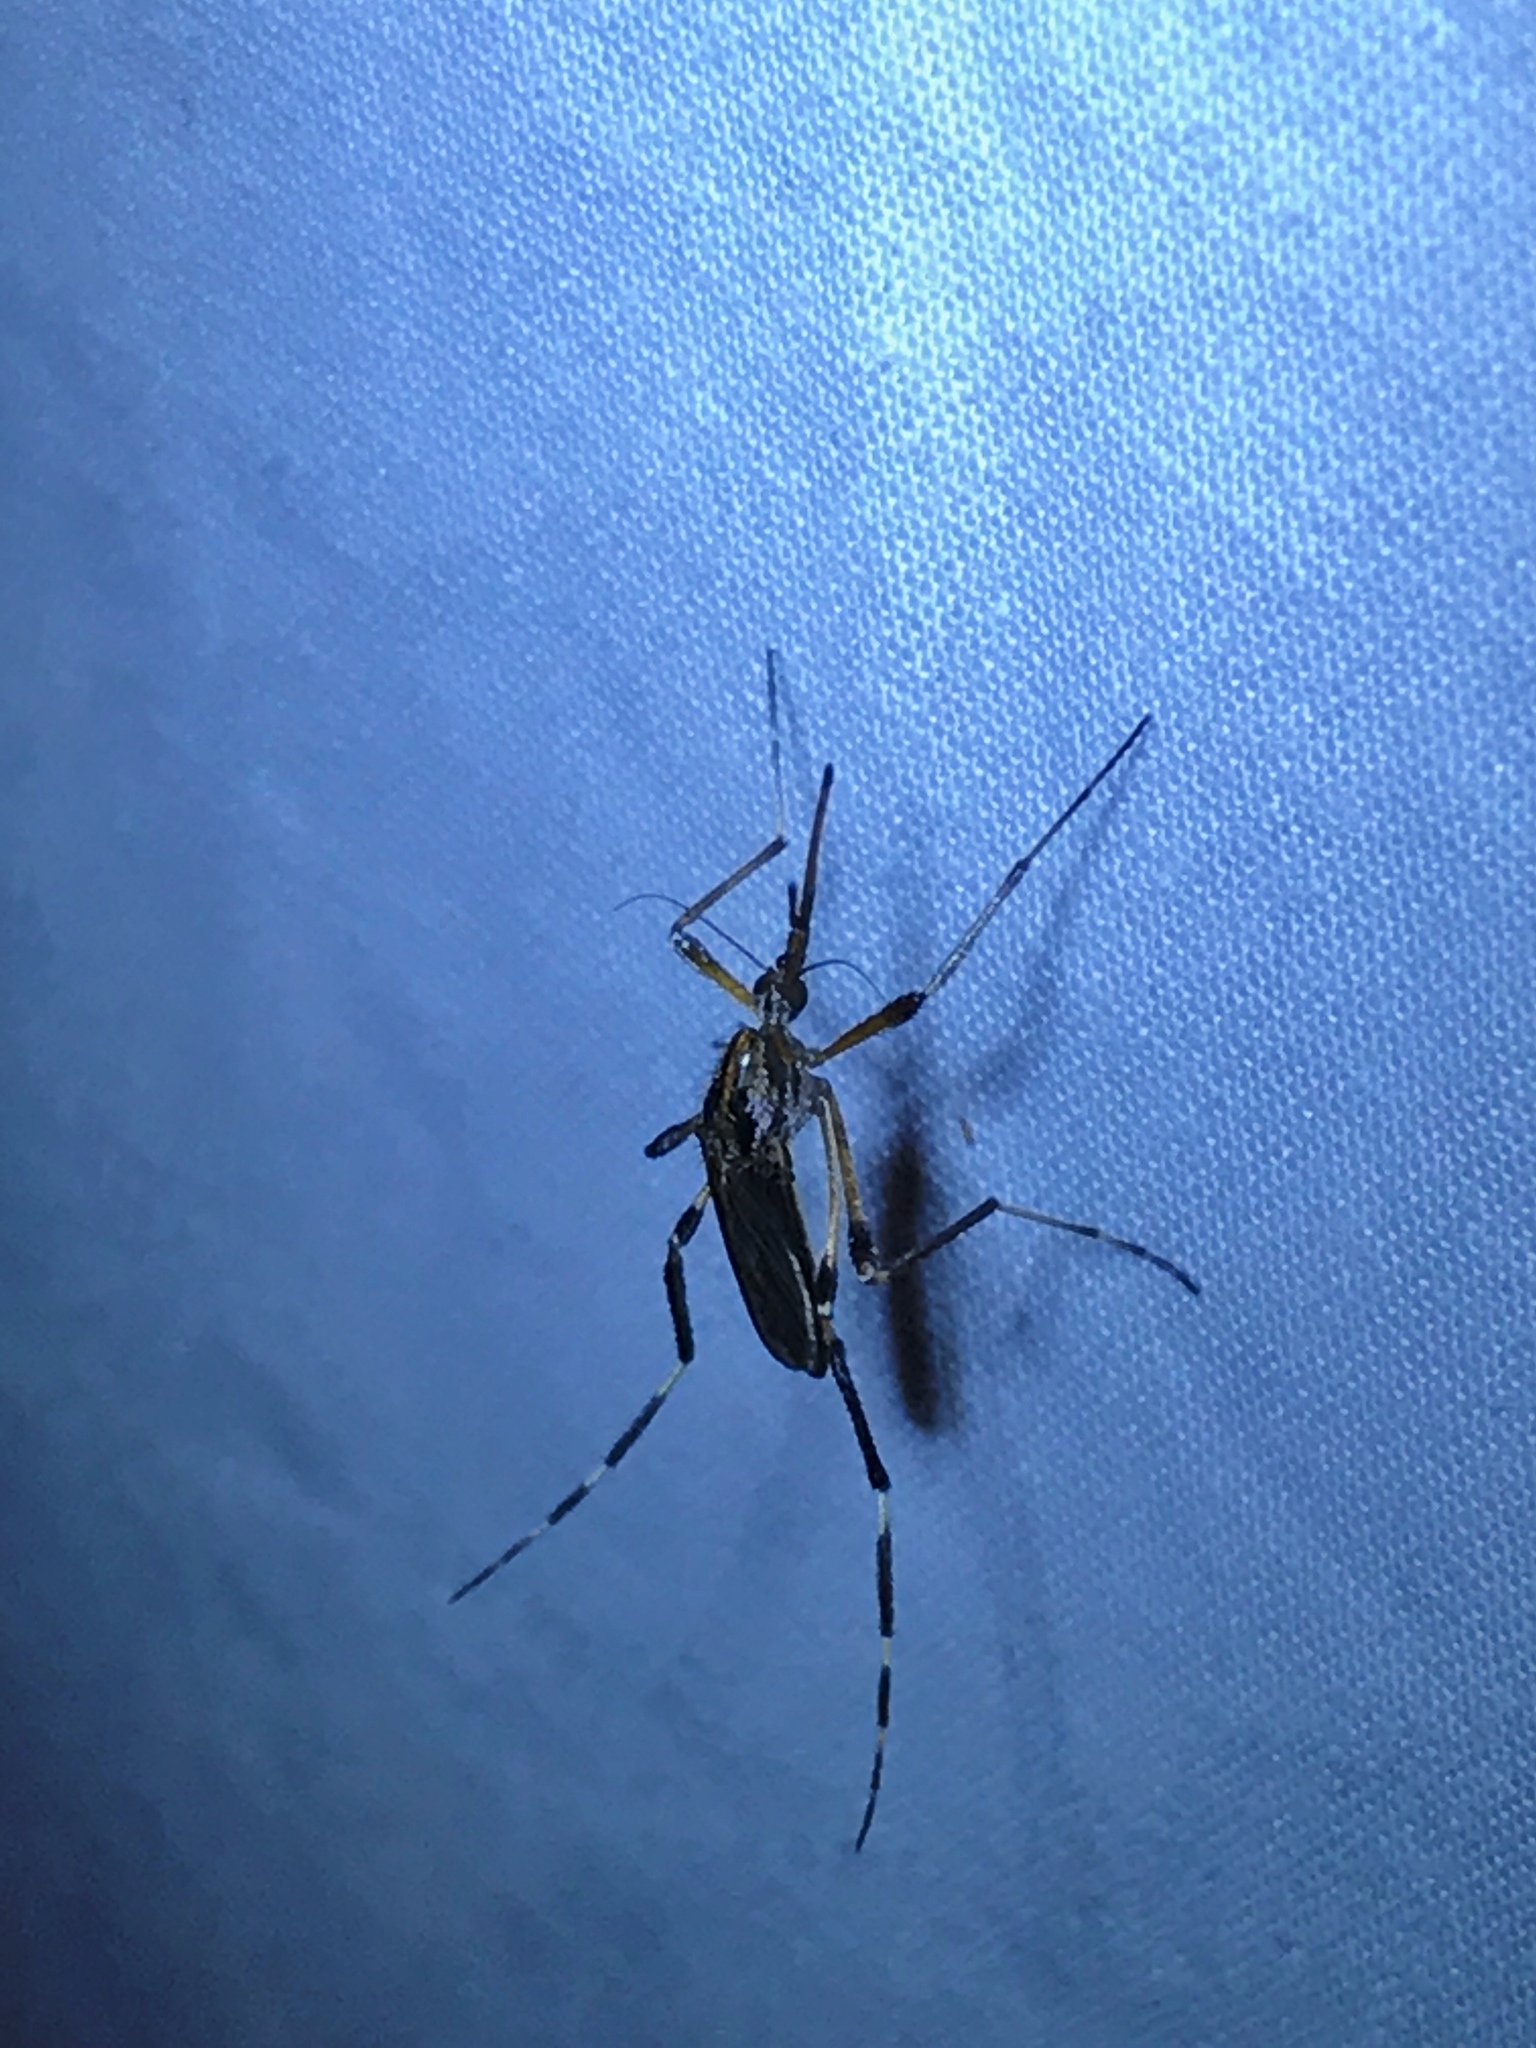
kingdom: Animalia
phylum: Arthropoda
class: Insecta
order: Diptera
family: Culicidae
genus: Psorophora
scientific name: Psorophora ciliata
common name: Gallinipper
